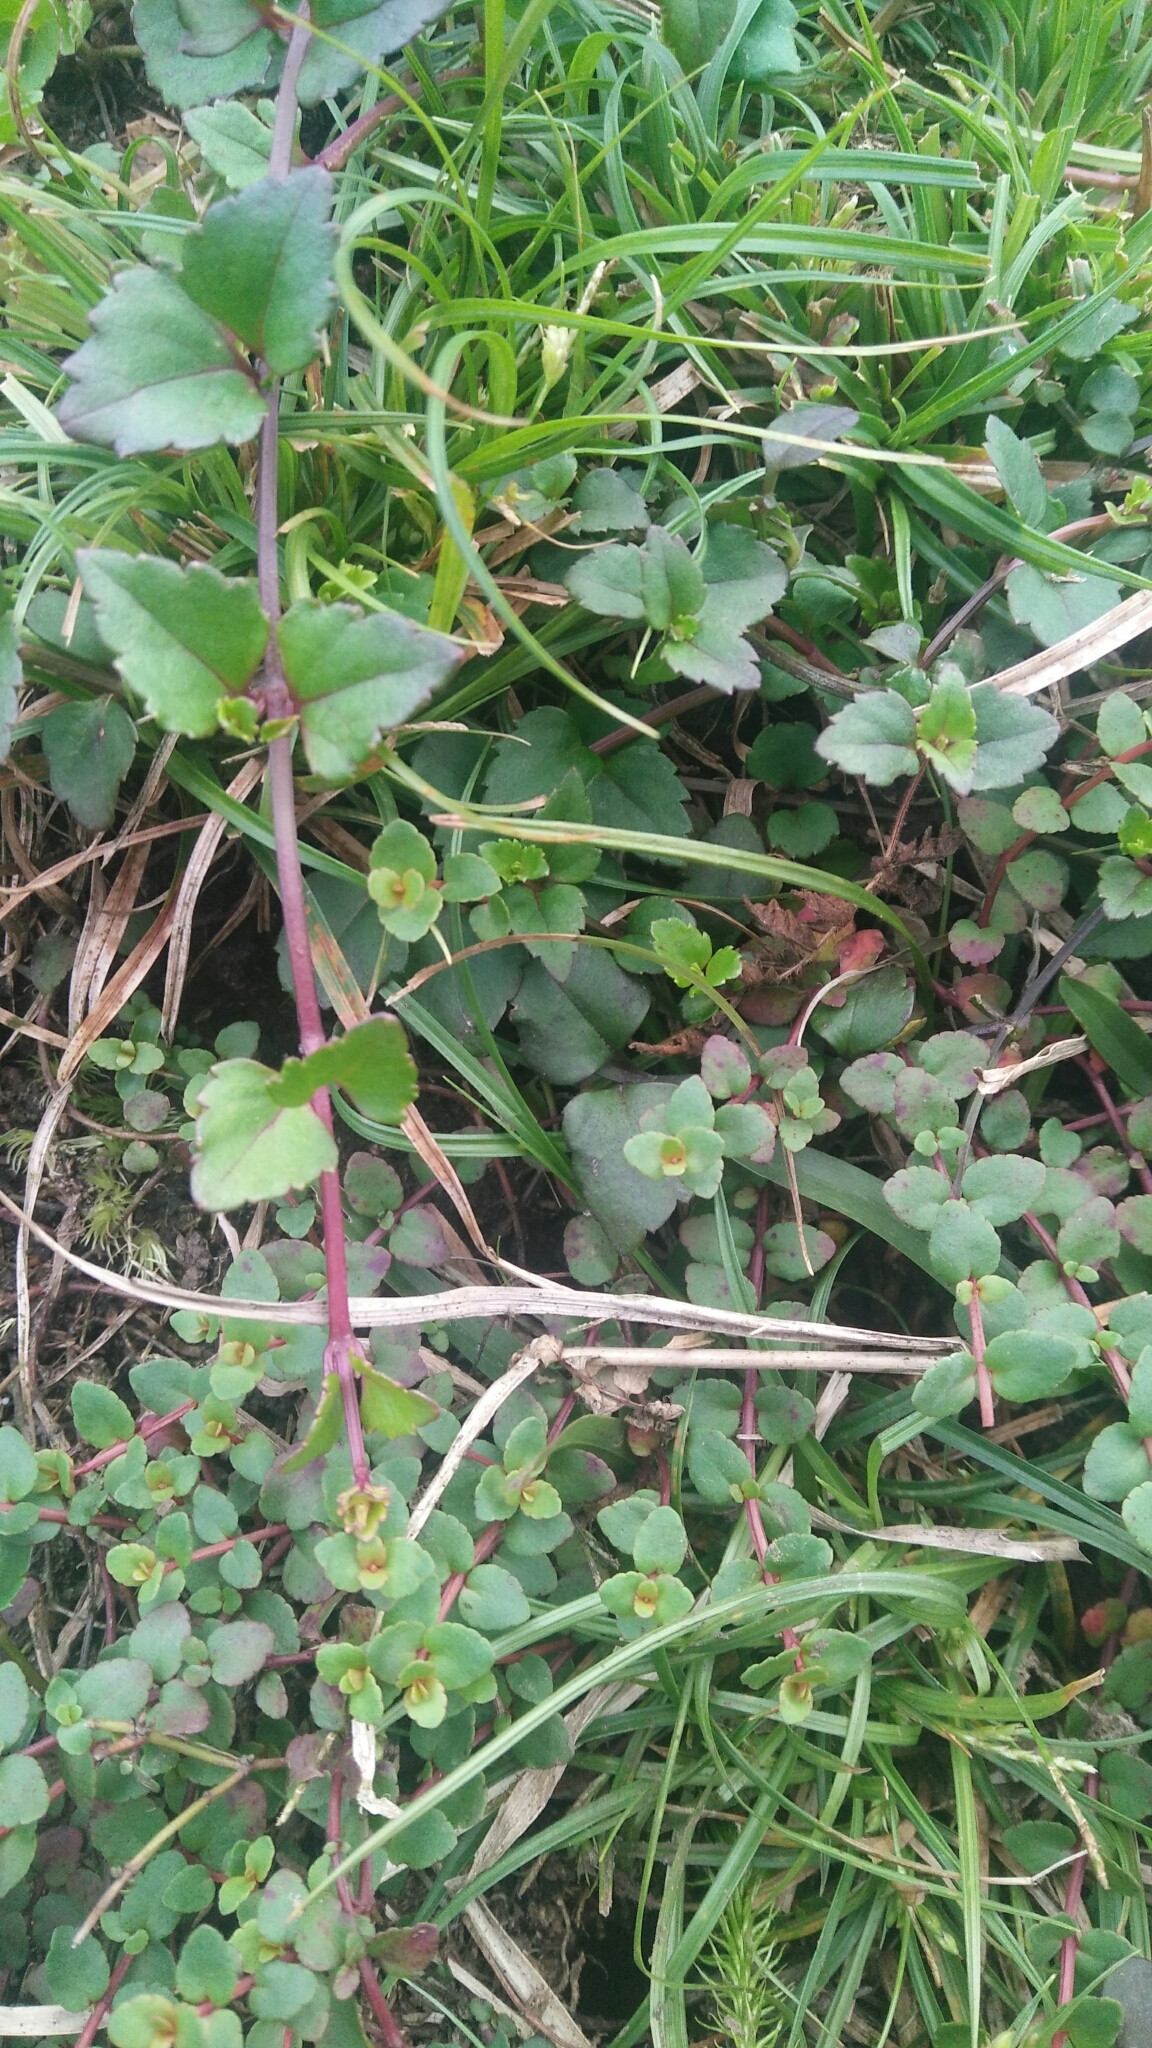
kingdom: Plantae
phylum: Tracheophyta
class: Magnoliopsida
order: Saxifragales
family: Haloragaceae
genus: Gonocarpus
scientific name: Gonocarpus micranthus
